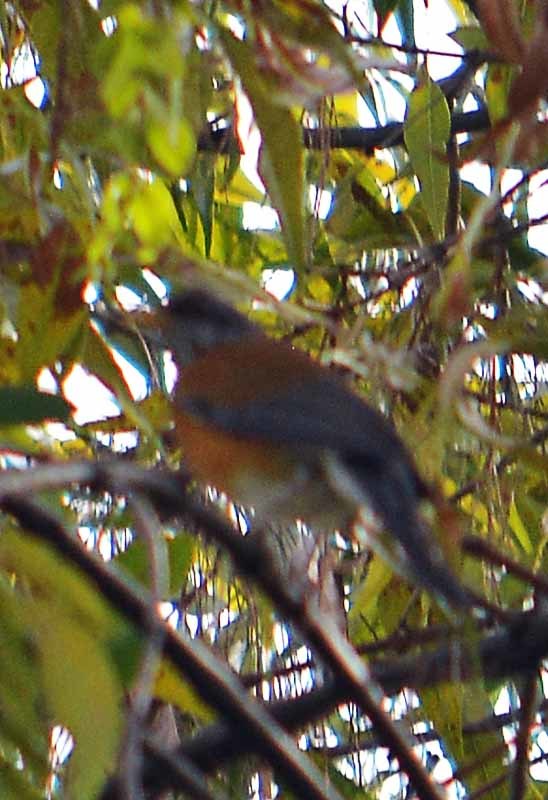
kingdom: Animalia
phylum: Chordata
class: Aves
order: Passeriformes
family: Turdidae
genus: Turdus
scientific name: Turdus rufopalliatus
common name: Rufous-backed robin
